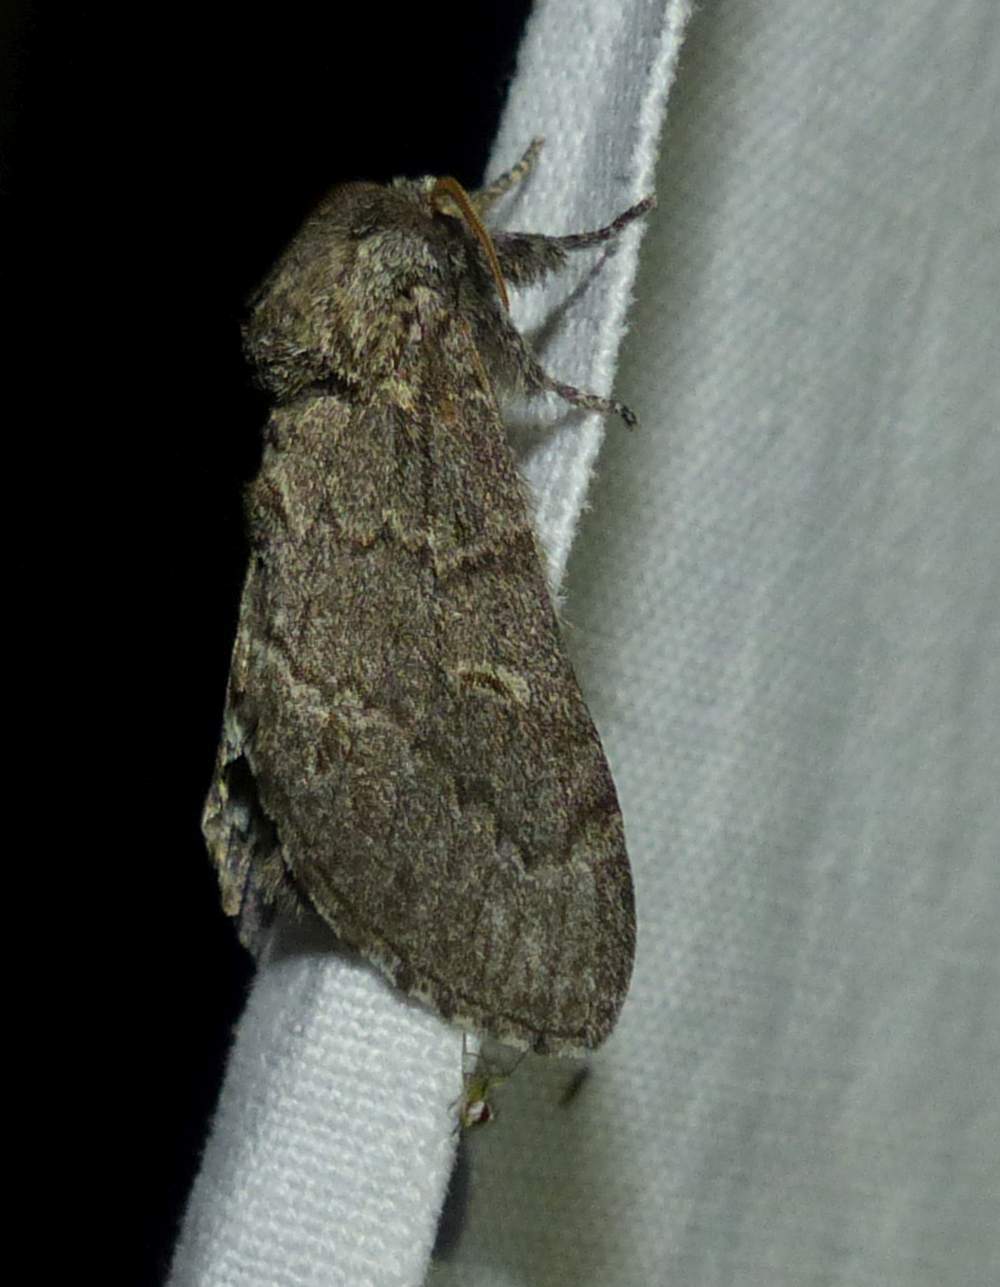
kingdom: Animalia
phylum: Arthropoda
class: Insecta
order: Lepidoptera
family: Notodontidae
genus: Notodonta
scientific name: Notodonta torva
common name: Large dark prominent
